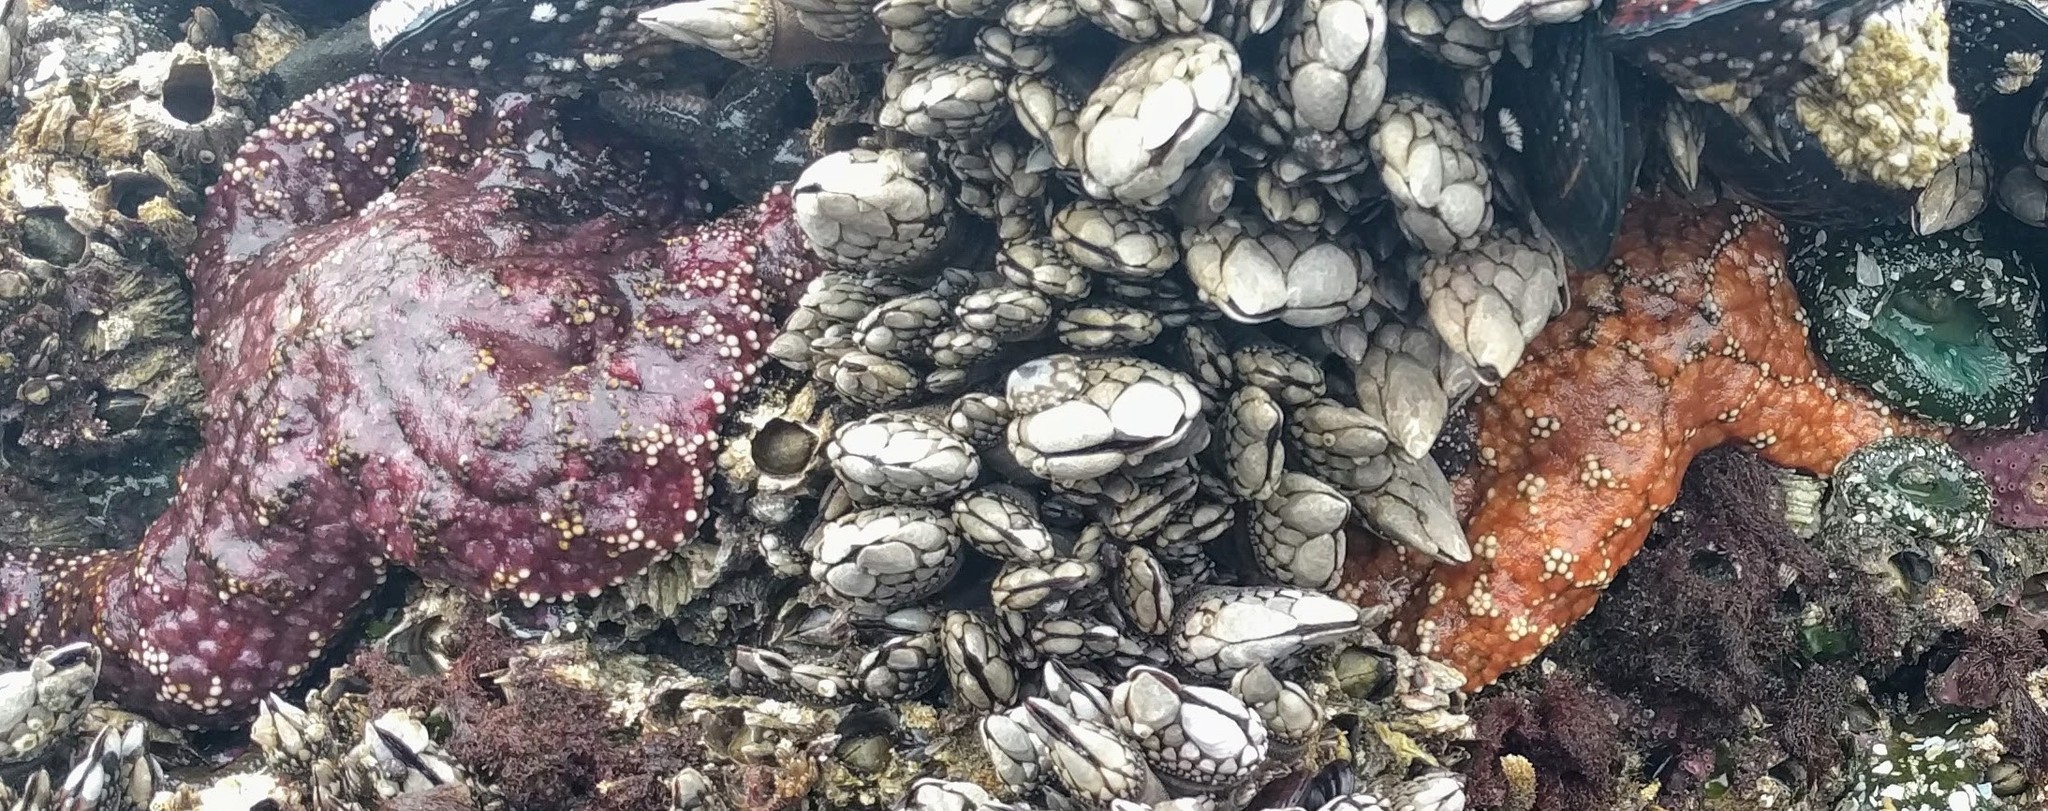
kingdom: Animalia
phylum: Echinodermata
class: Asteroidea
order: Forcipulatida
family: Asteriidae
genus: Pisaster
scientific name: Pisaster ochraceus
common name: Ochre stars
